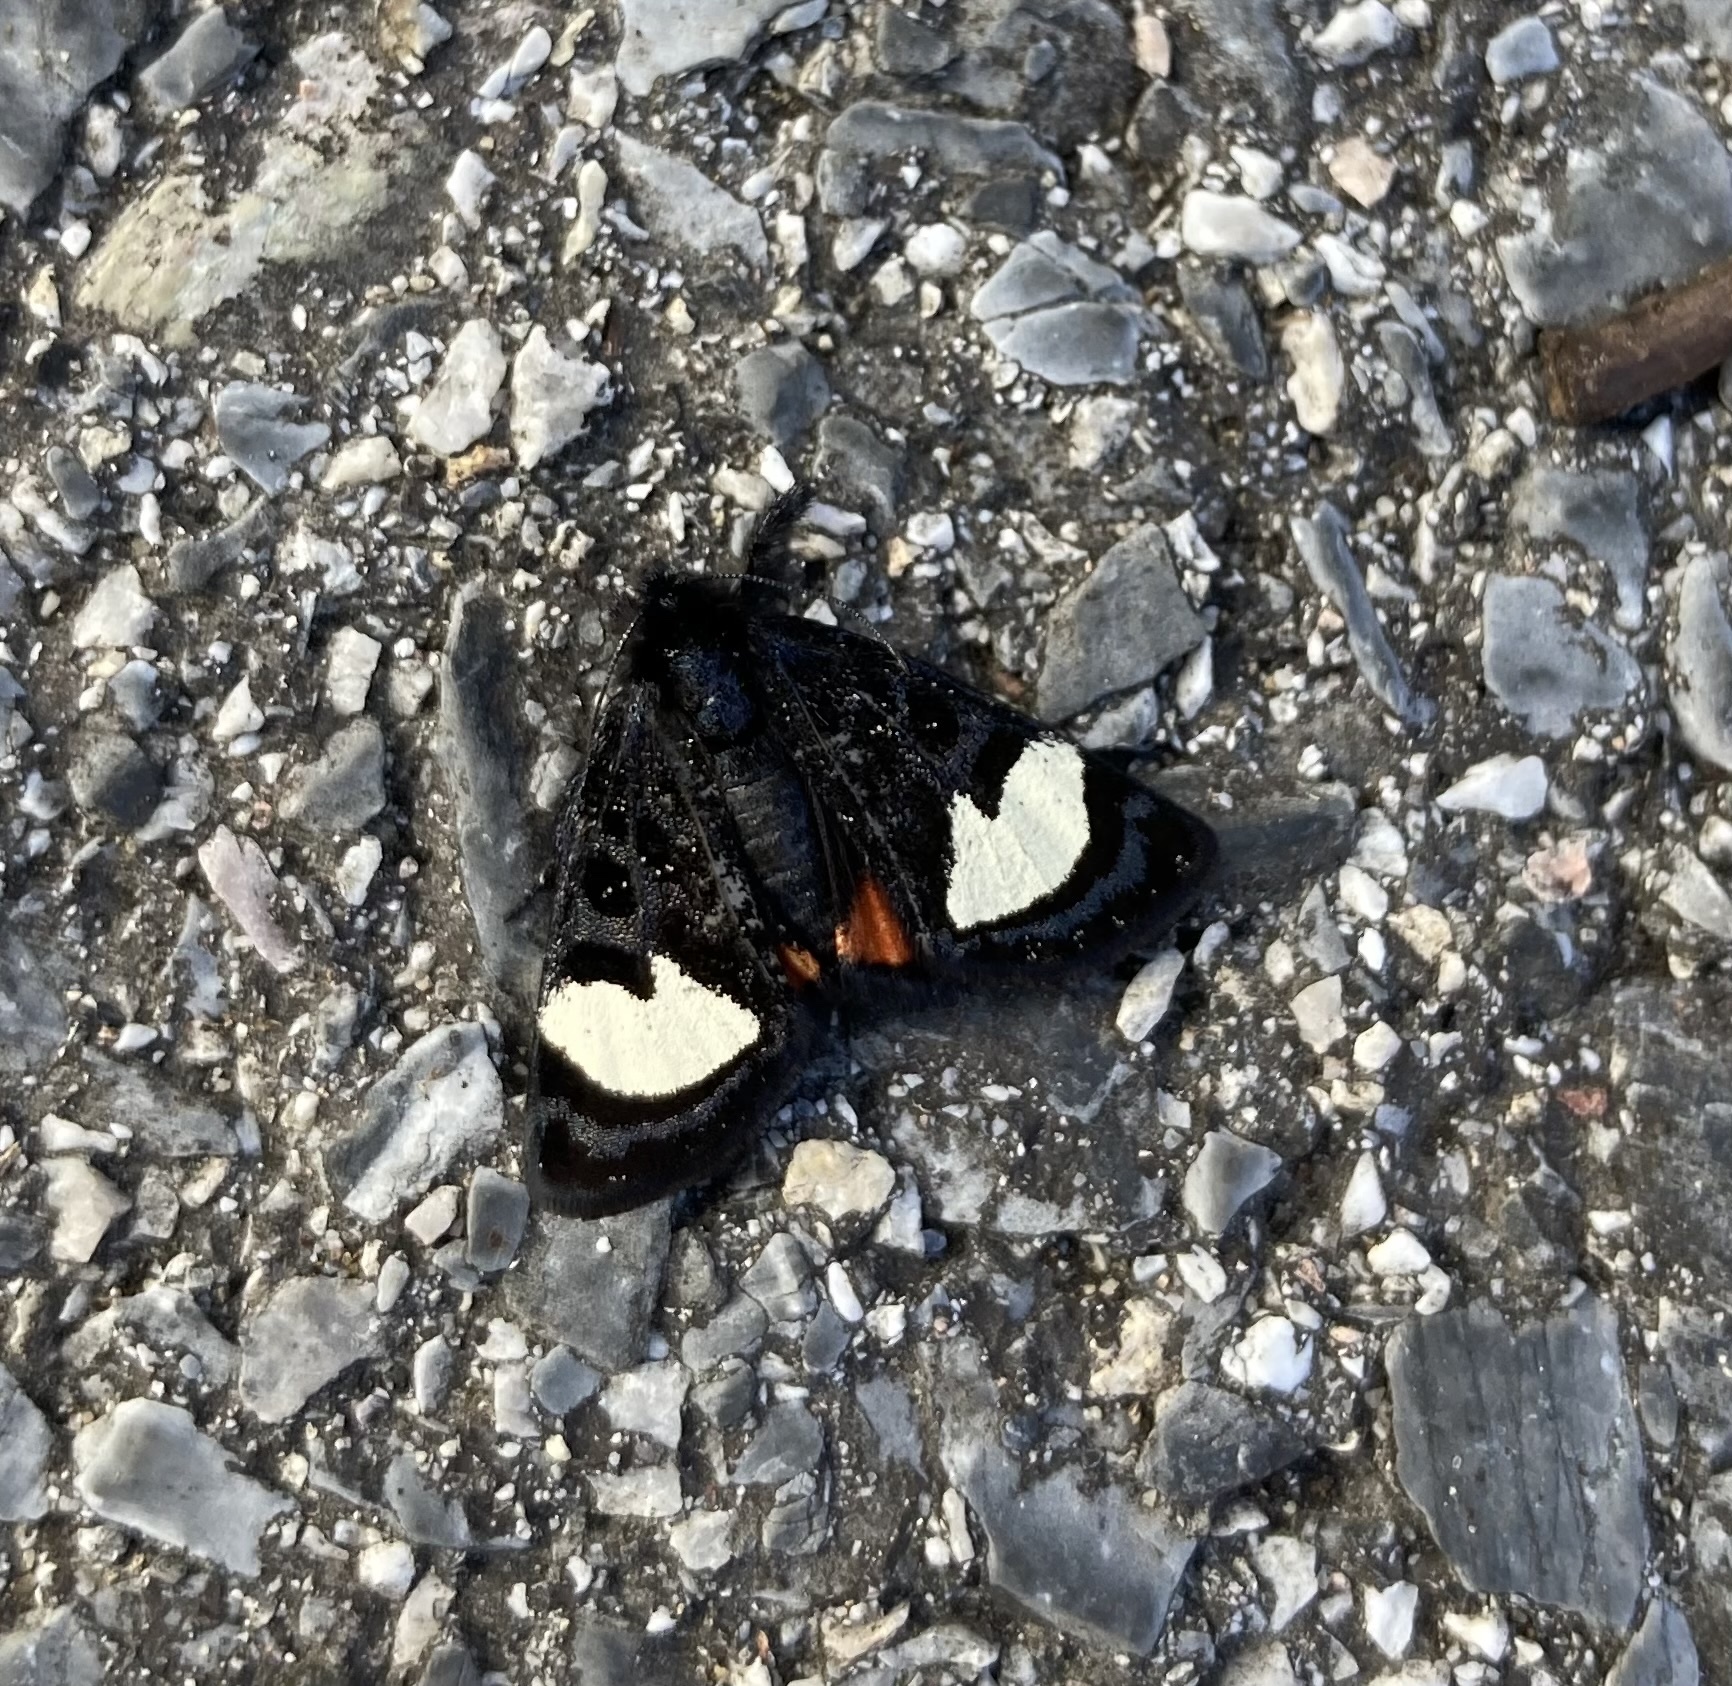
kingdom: Animalia
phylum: Arthropoda
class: Insecta
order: Lepidoptera
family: Noctuidae
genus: Psychomorpha
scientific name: Psychomorpha epimenis
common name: Grapevine epimenis moth
